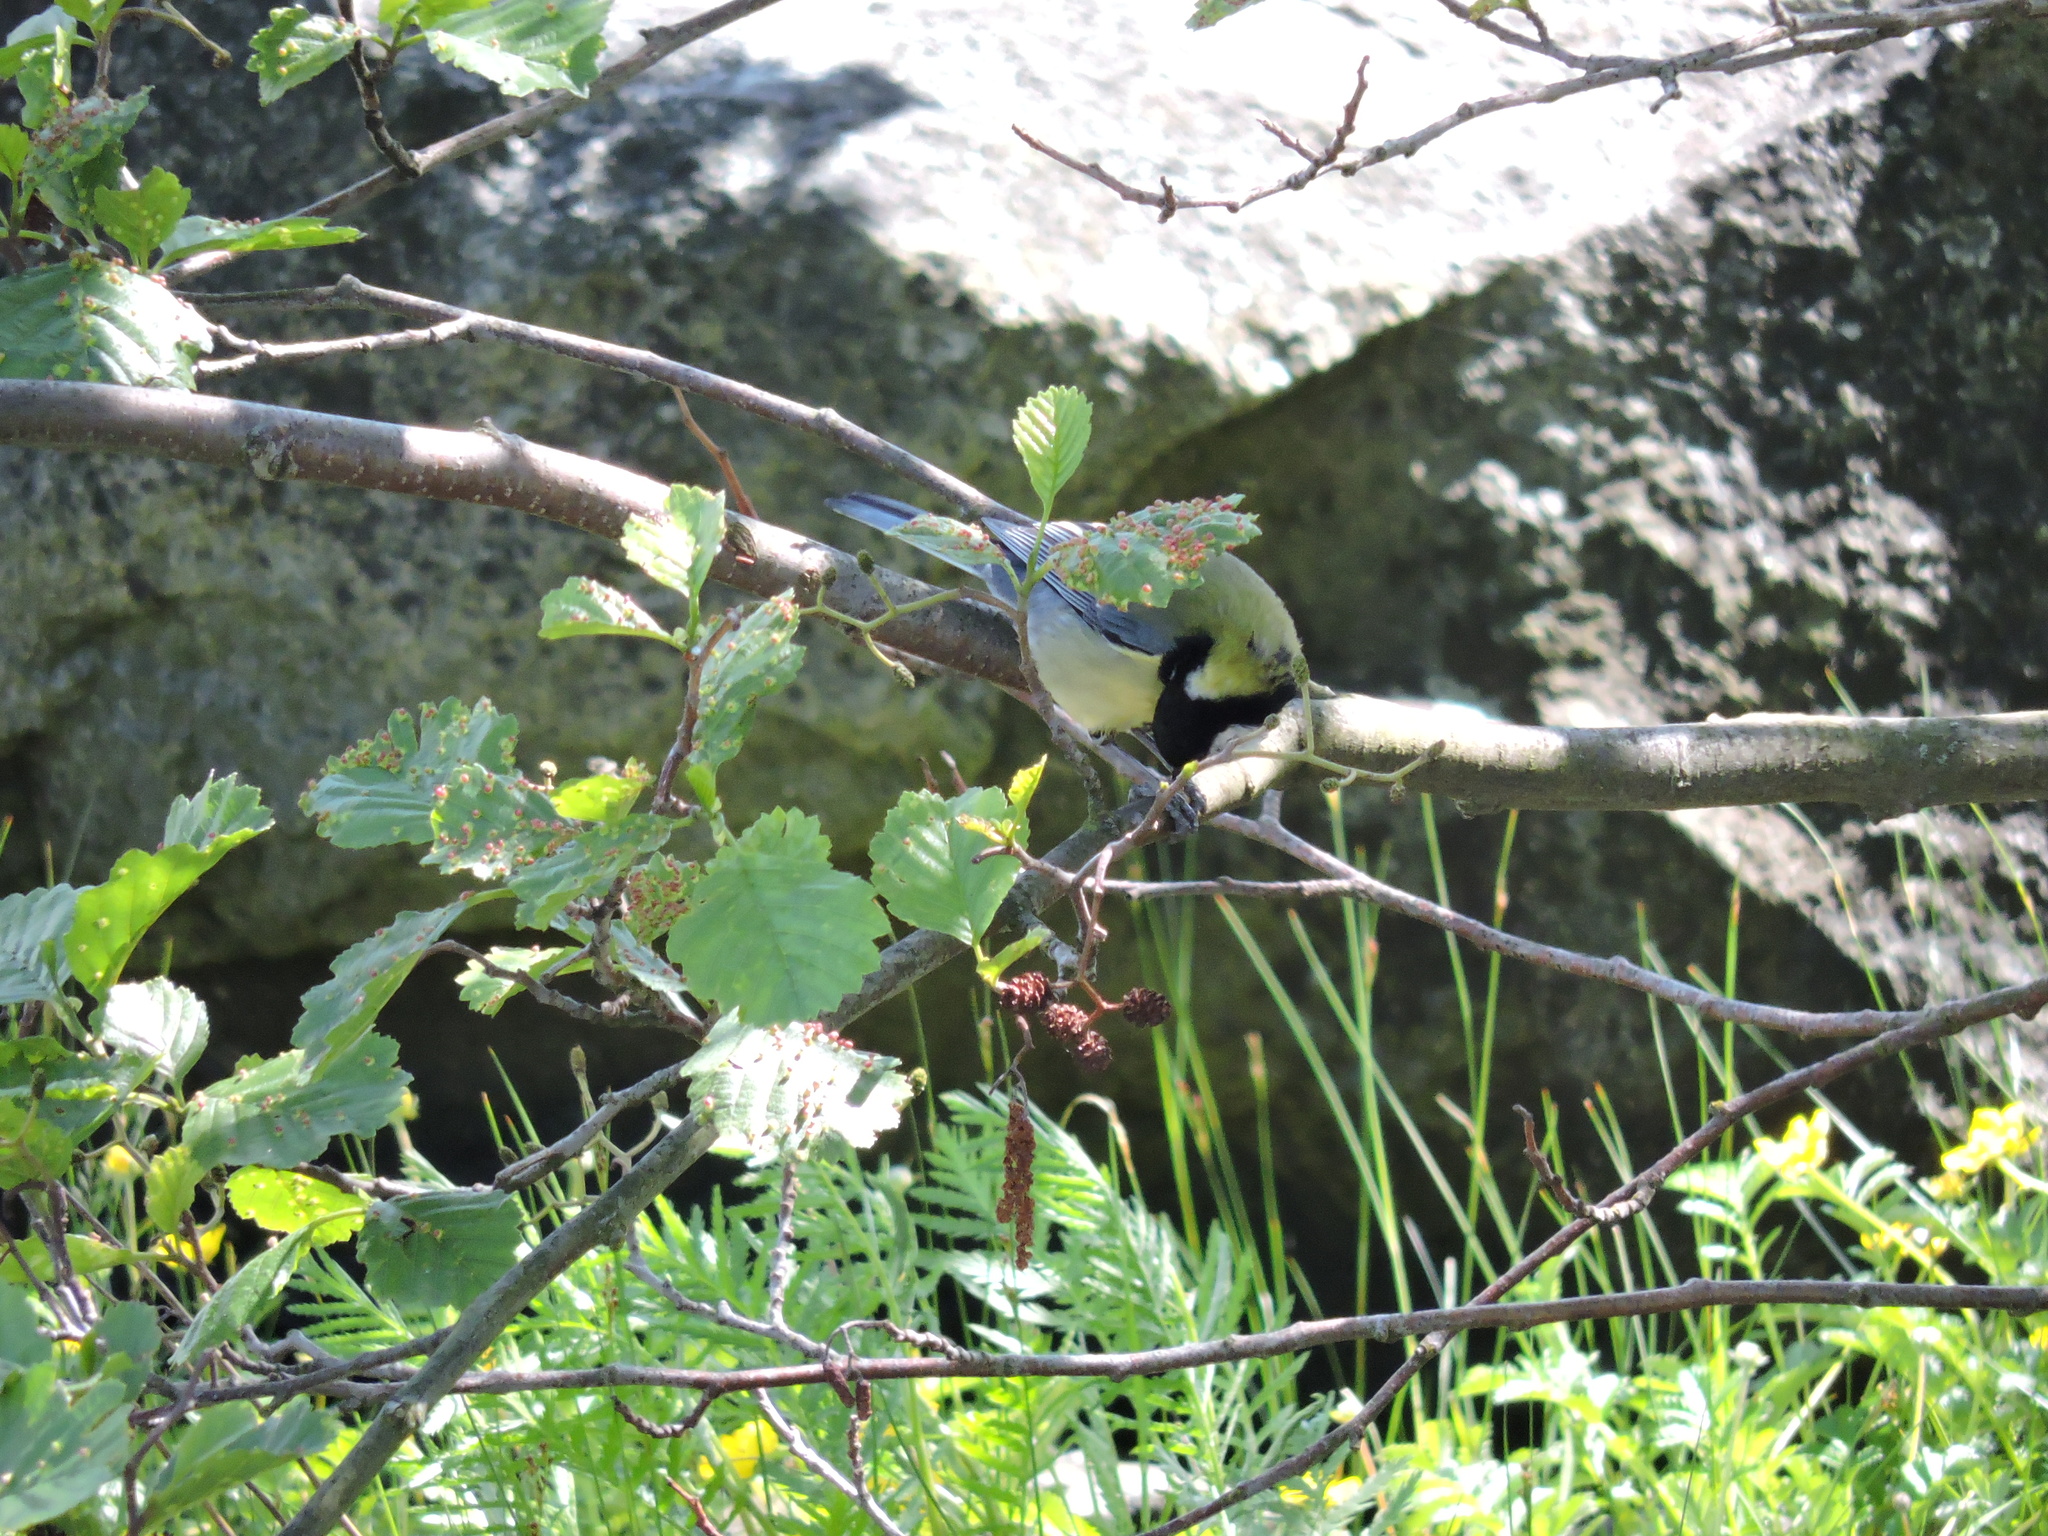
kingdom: Animalia
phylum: Chordata
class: Aves
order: Passeriformes
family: Paridae
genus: Parus
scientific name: Parus major
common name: Great tit
